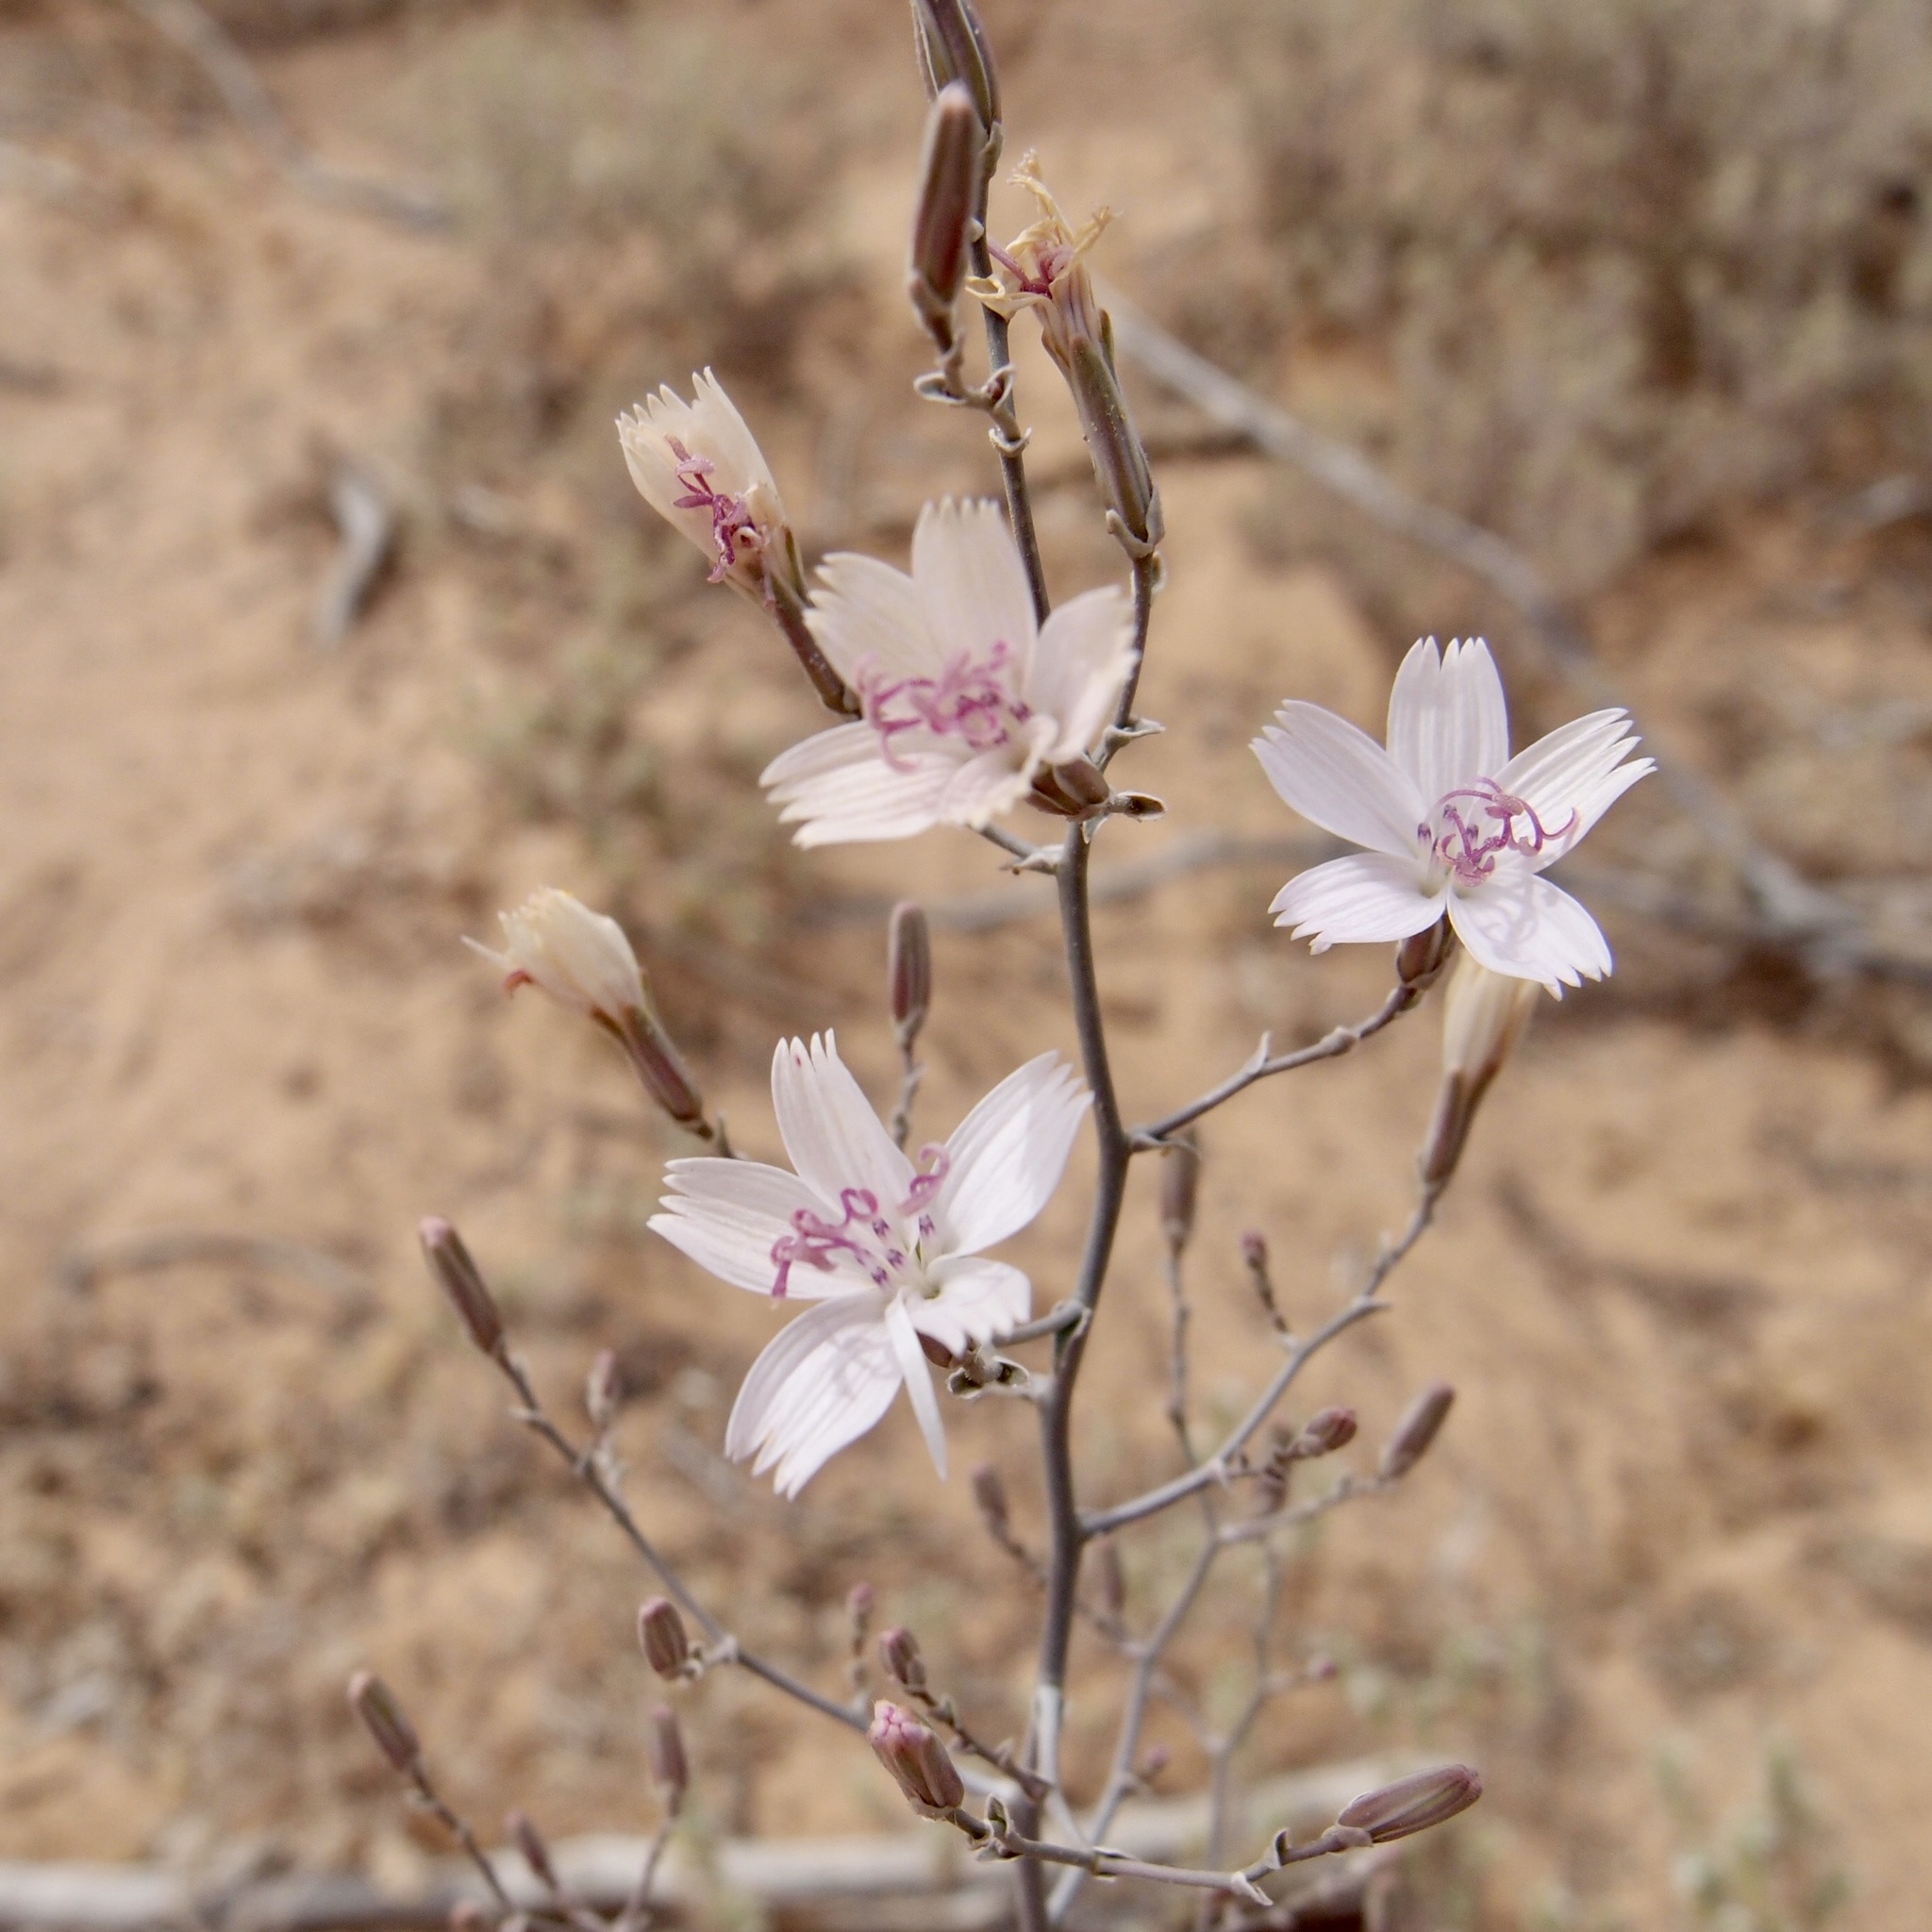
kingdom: Plantae
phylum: Tracheophyta
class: Magnoliopsida
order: Asterales
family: Asteraceae
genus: Stephanomeria
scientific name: Stephanomeria exigua
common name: Small wirelettuce
